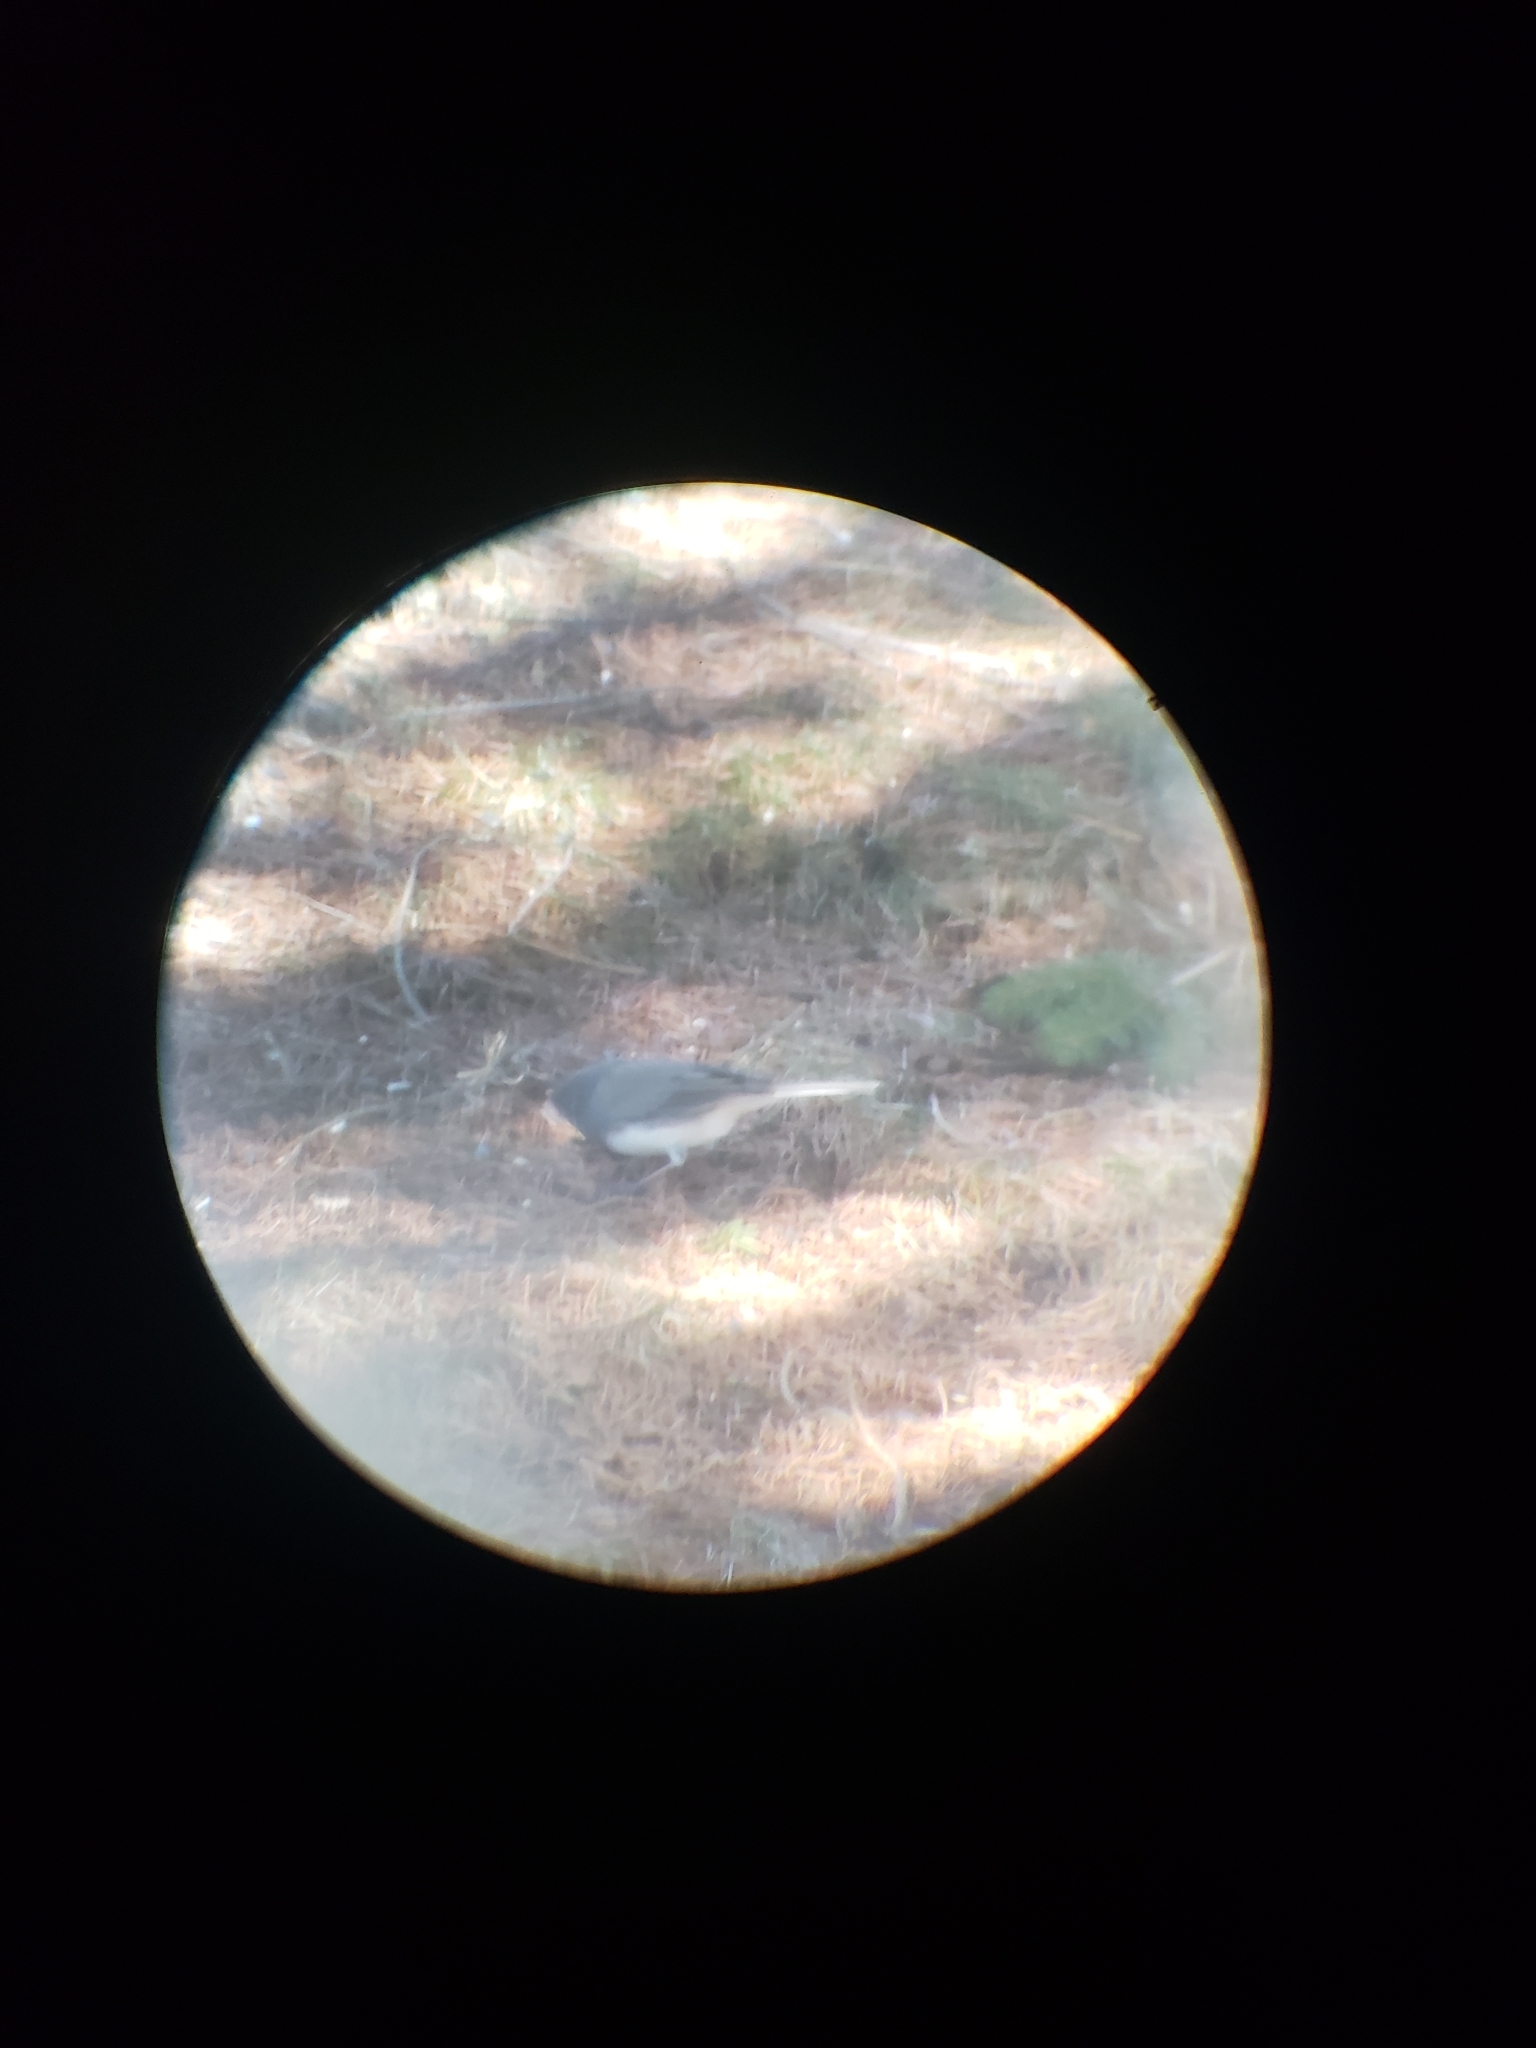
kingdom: Animalia
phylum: Chordata
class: Aves
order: Passeriformes
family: Passerellidae
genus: Junco
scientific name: Junco hyemalis
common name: Dark-eyed junco
